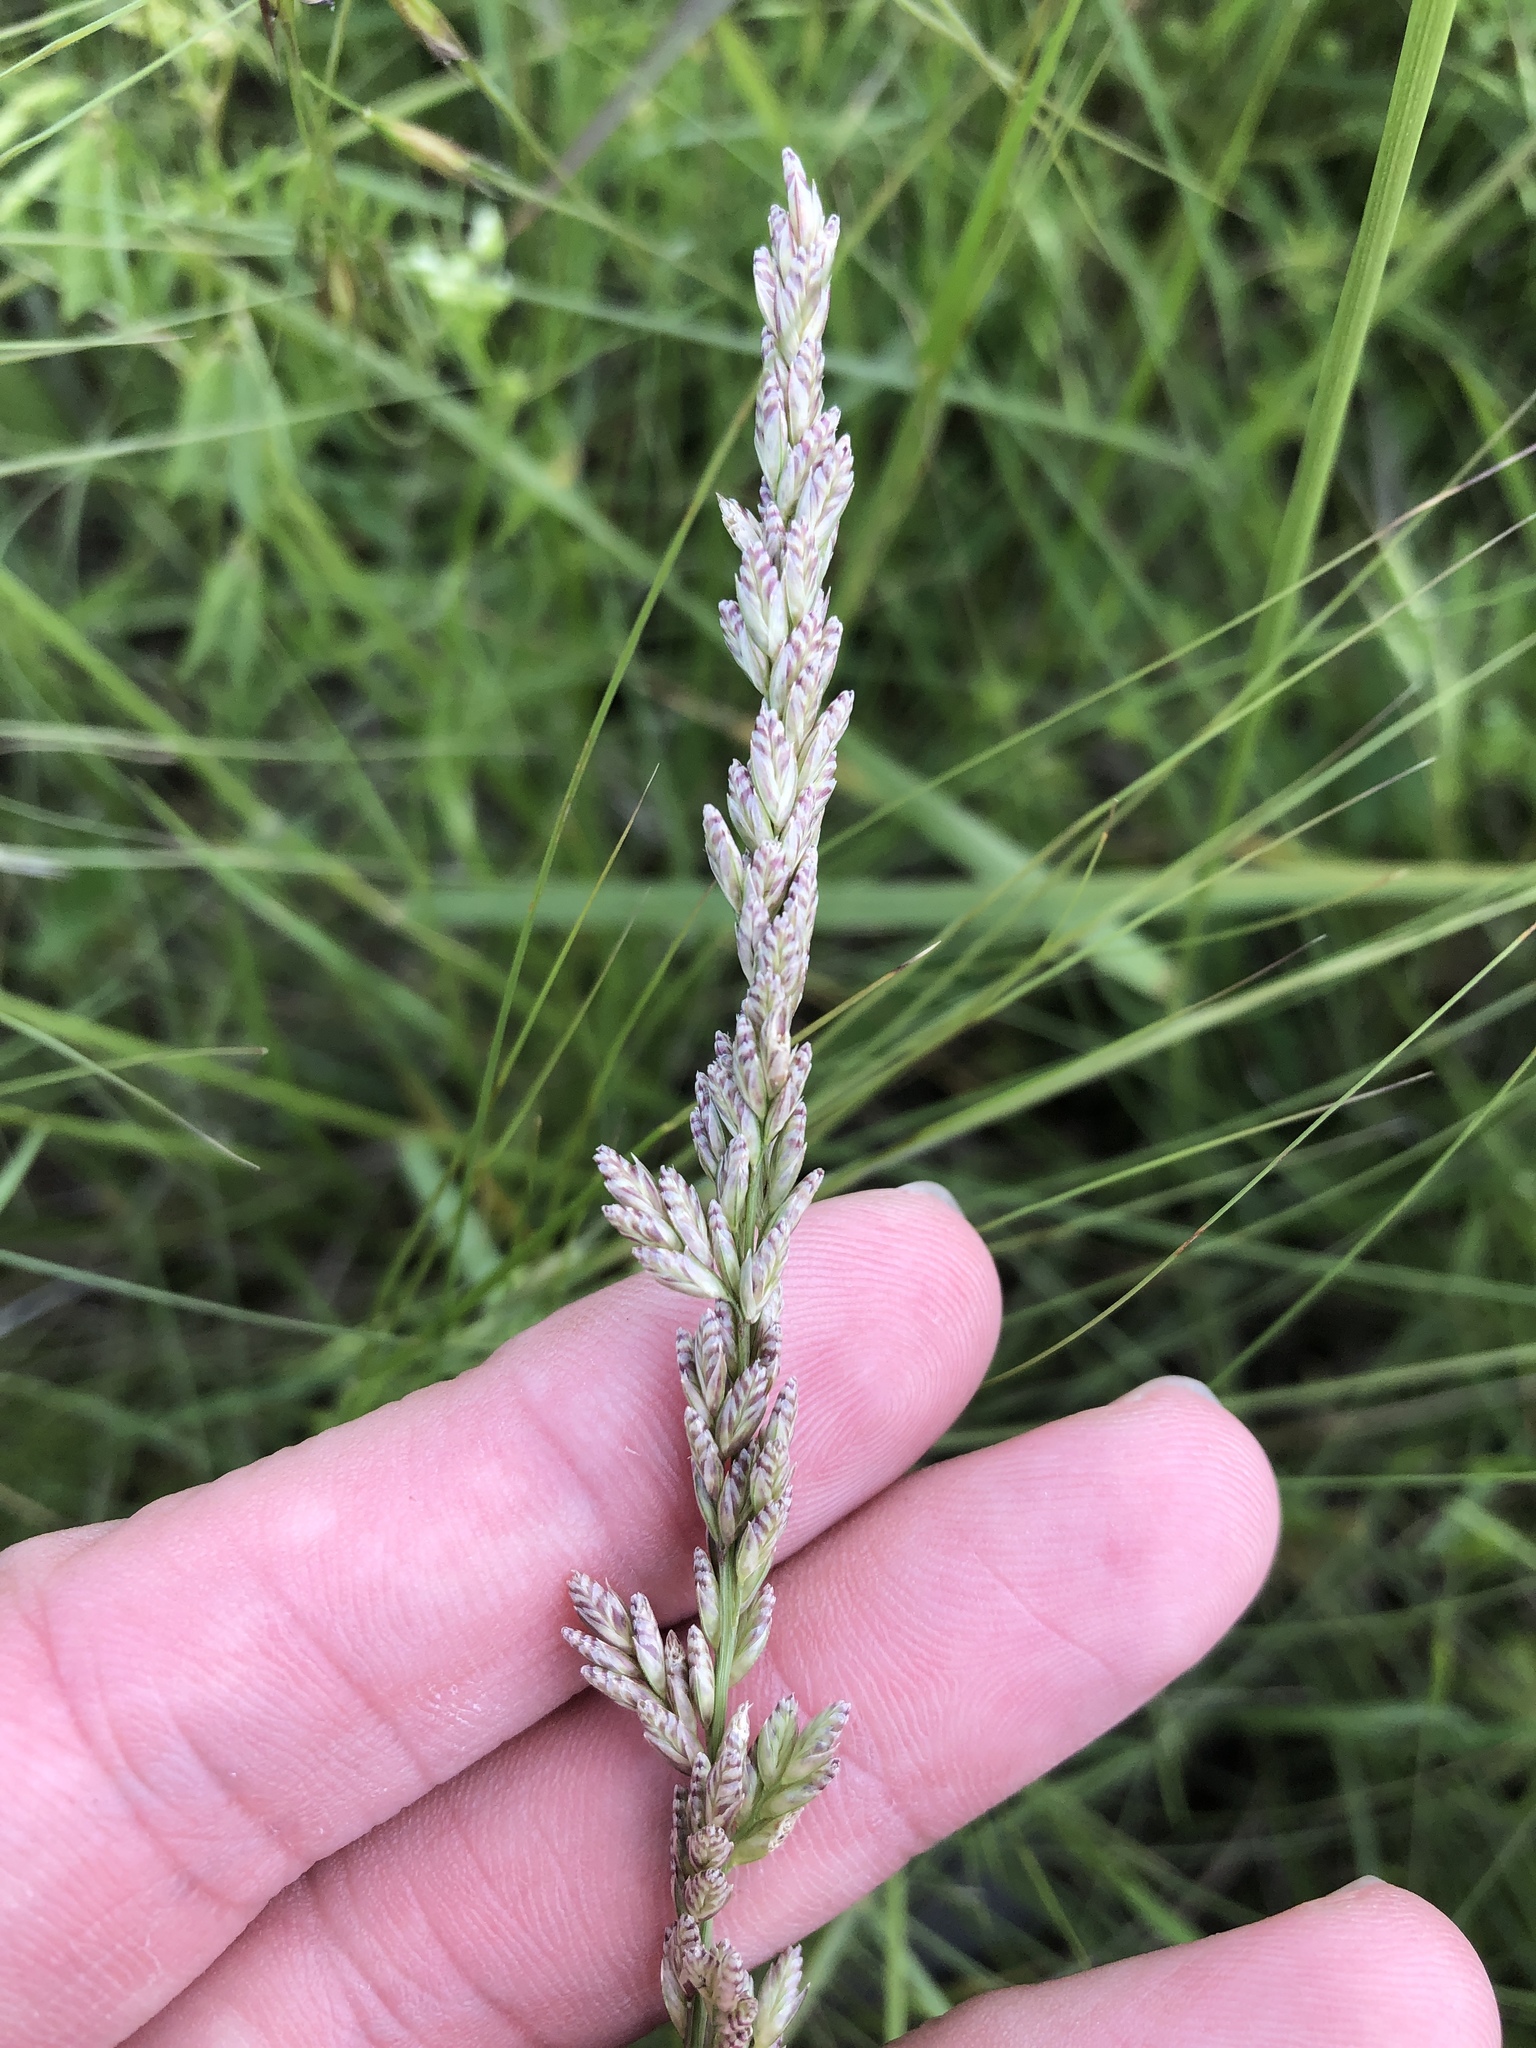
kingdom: Plantae
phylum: Tracheophyta
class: Liliopsida
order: Poales
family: Poaceae
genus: Tridens
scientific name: Tridens albescens
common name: White tridens
